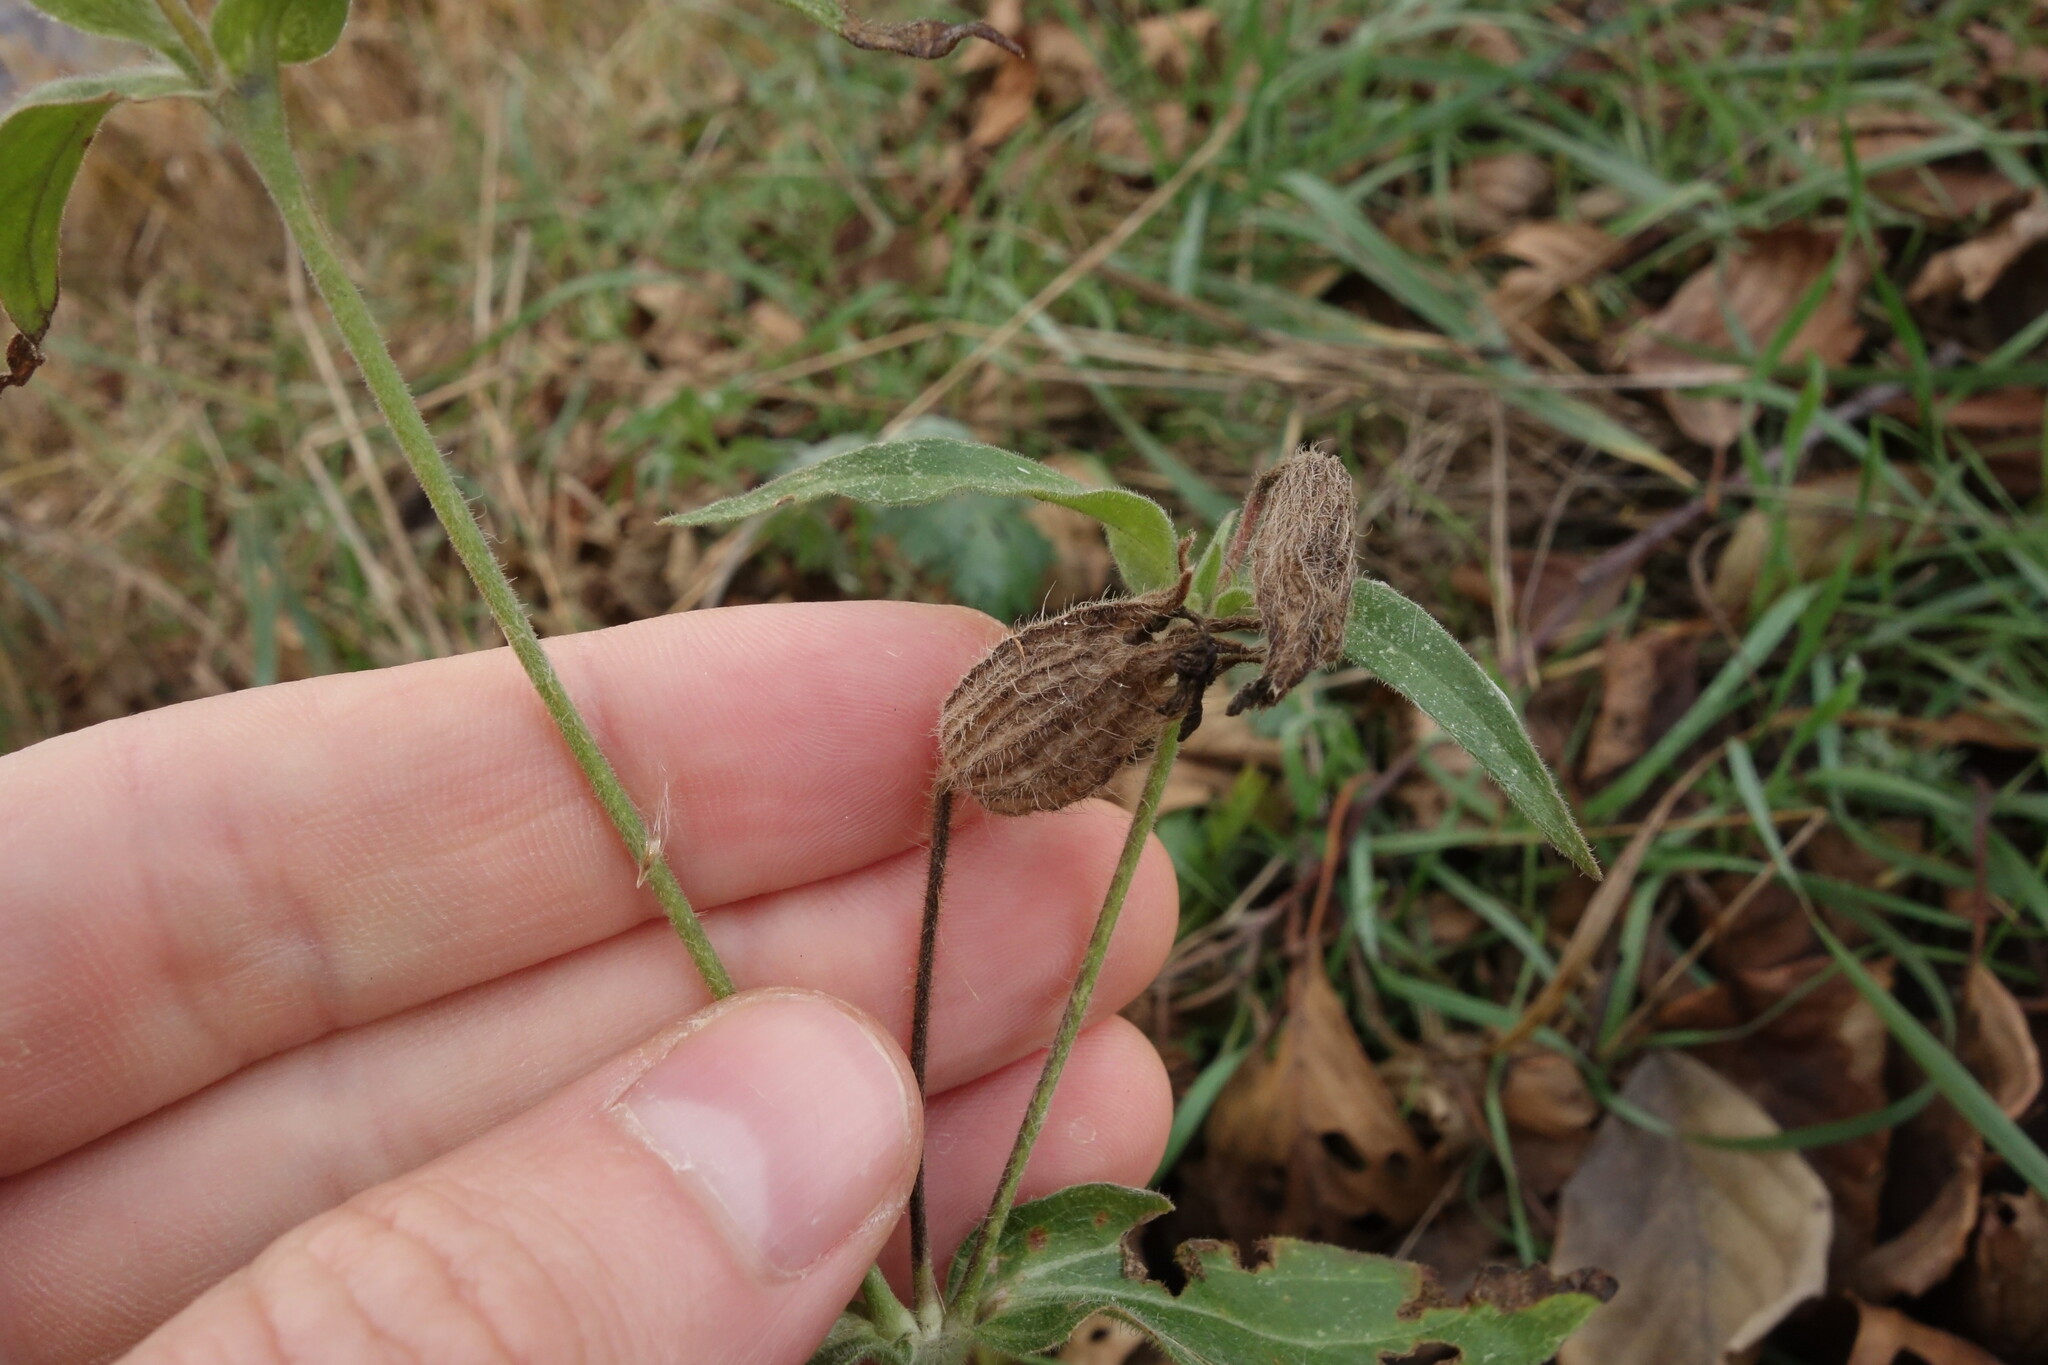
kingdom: Plantae
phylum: Tracheophyta
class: Magnoliopsida
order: Caryophyllales
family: Caryophyllaceae
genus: Silene
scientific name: Silene latifolia
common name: White campion
